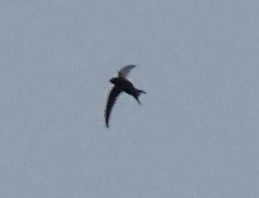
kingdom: Animalia
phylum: Chordata
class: Aves
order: Apodiformes
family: Apodidae
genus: Apus
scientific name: Apus apus
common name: Common swift
